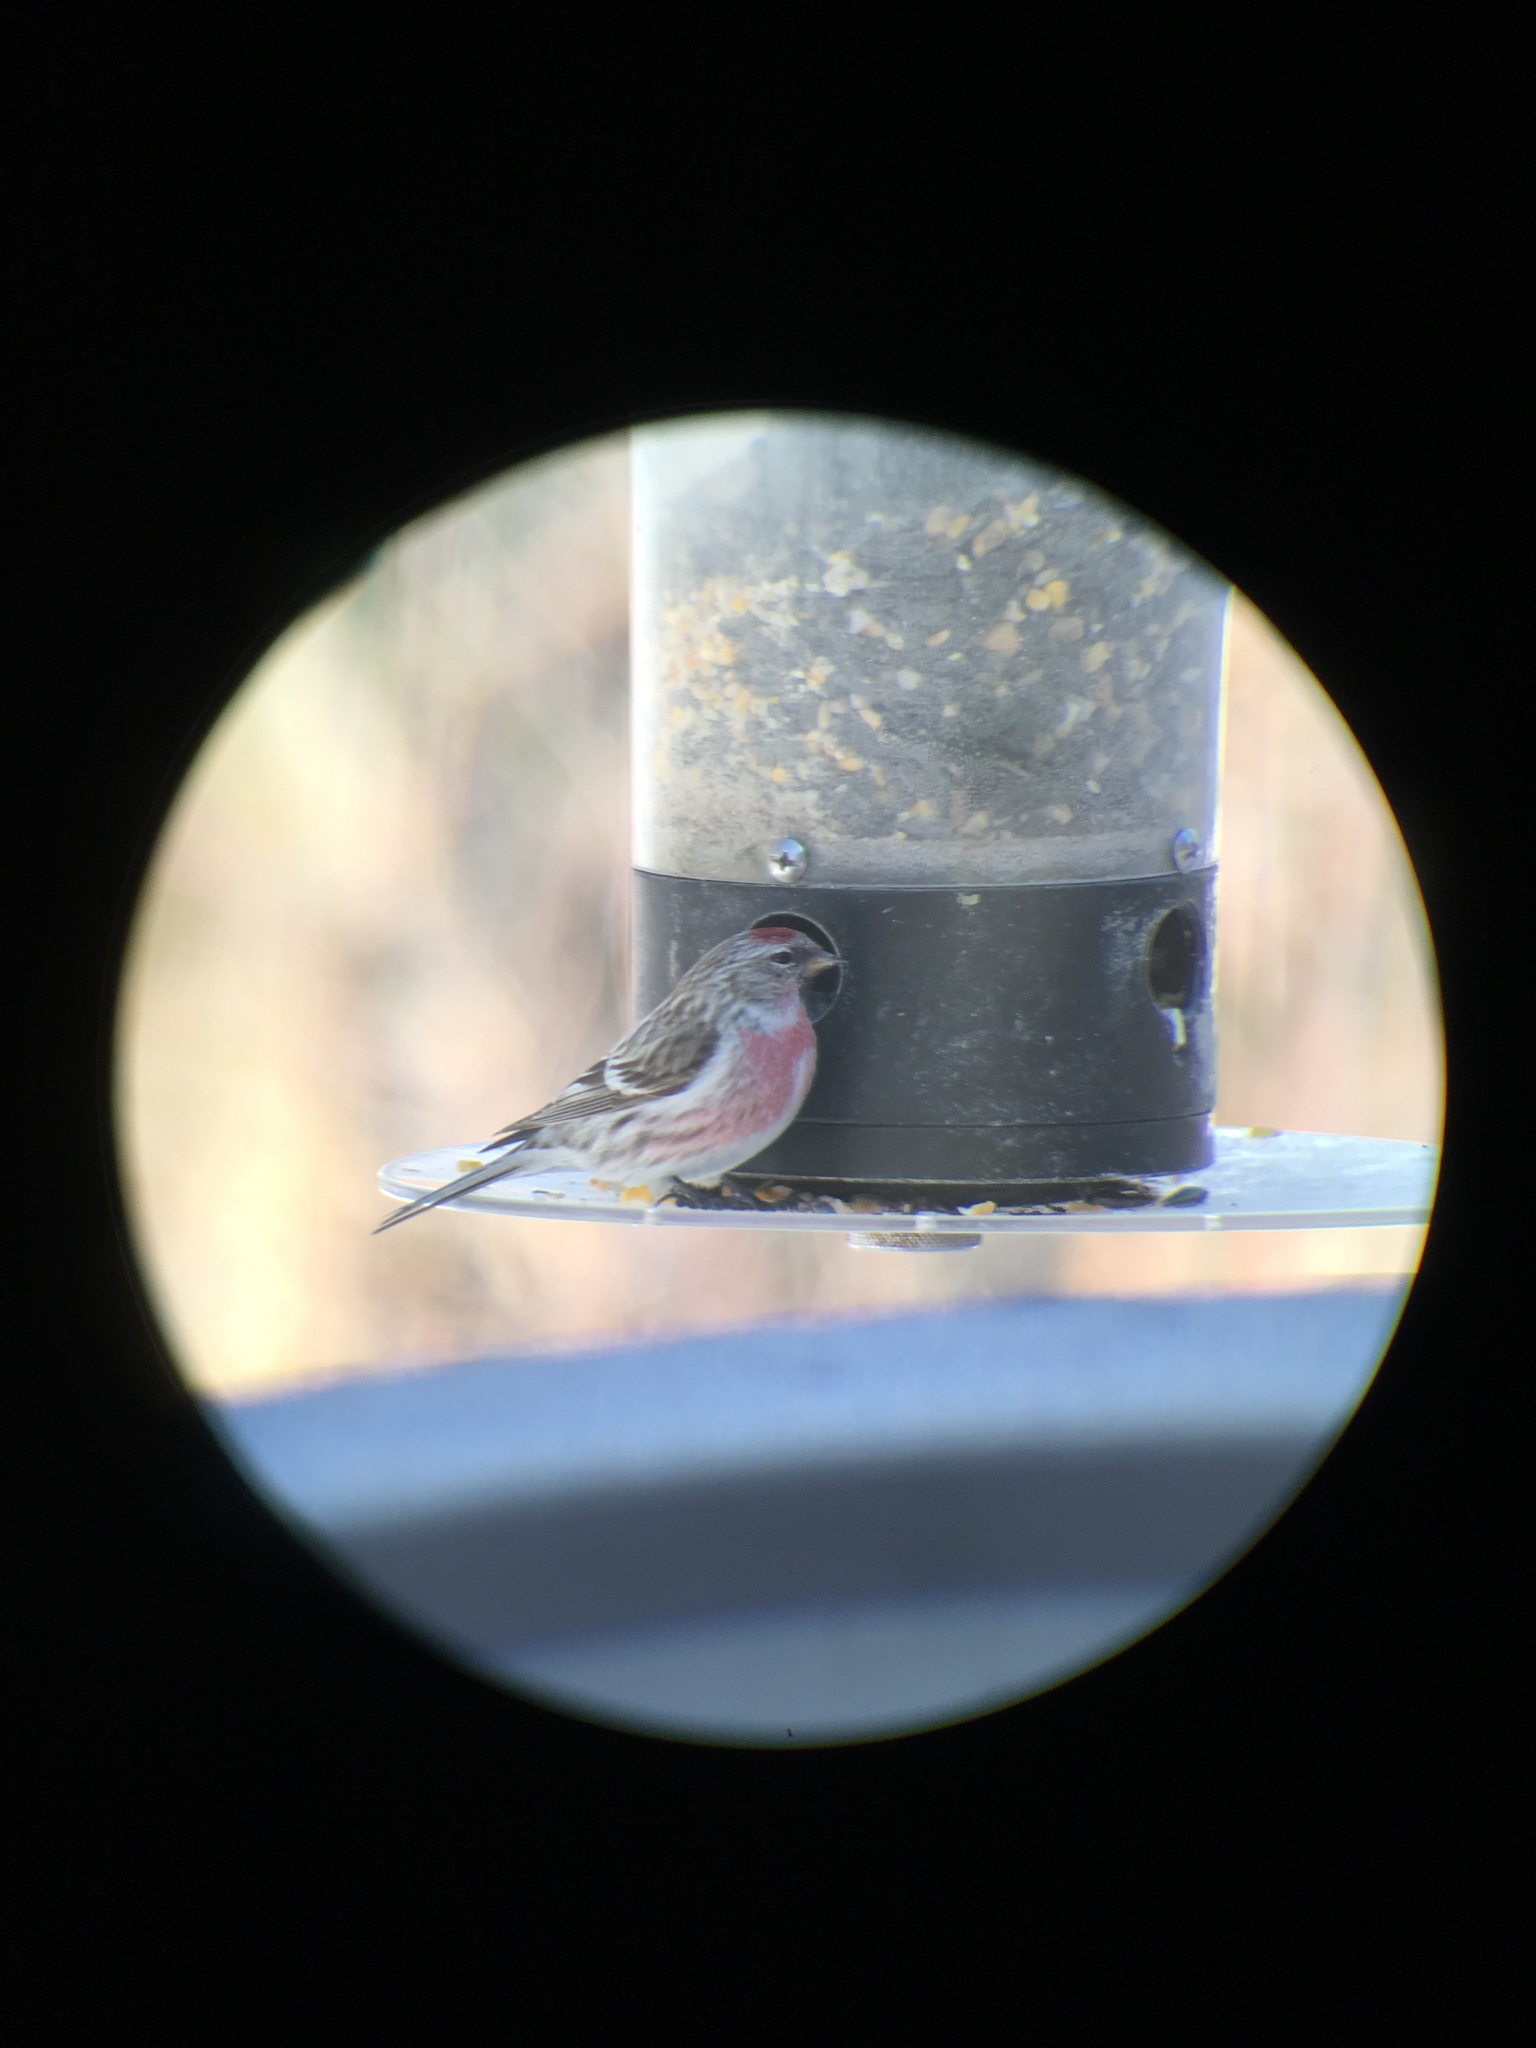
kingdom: Animalia
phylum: Chordata
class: Aves
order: Passeriformes
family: Fringillidae
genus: Acanthis
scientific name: Acanthis flammea
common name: Common redpoll
